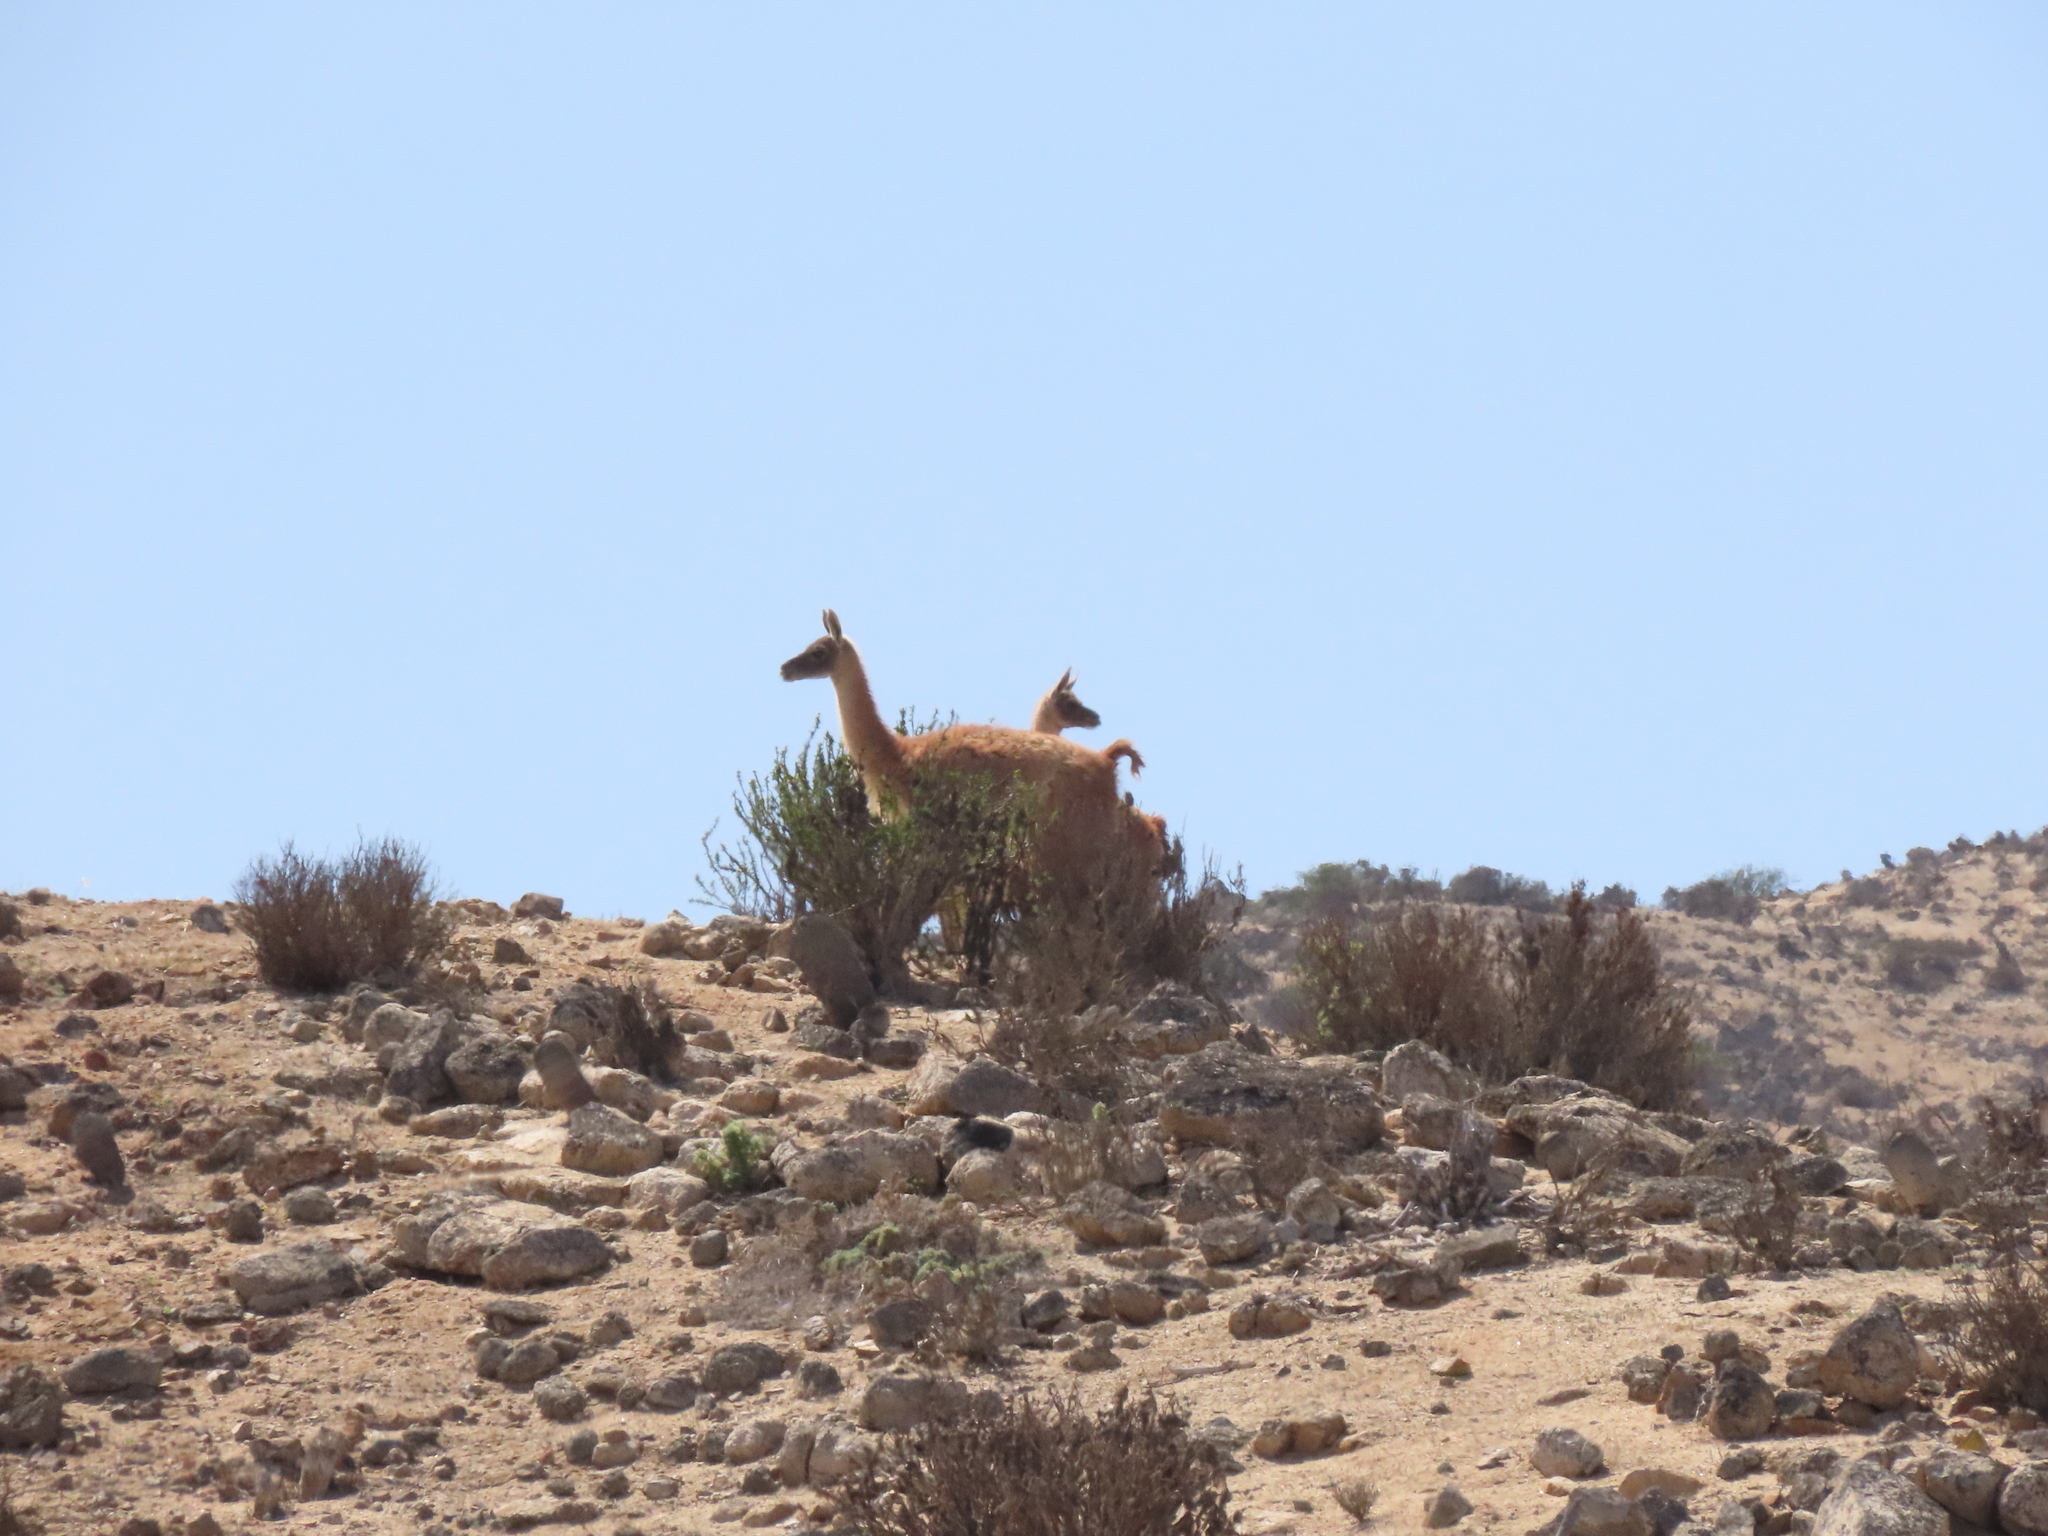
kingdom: Animalia
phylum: Chordata
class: Mammalia
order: Artiodactyla
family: Camelidae
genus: Lama
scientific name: Lama glama
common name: Llama
